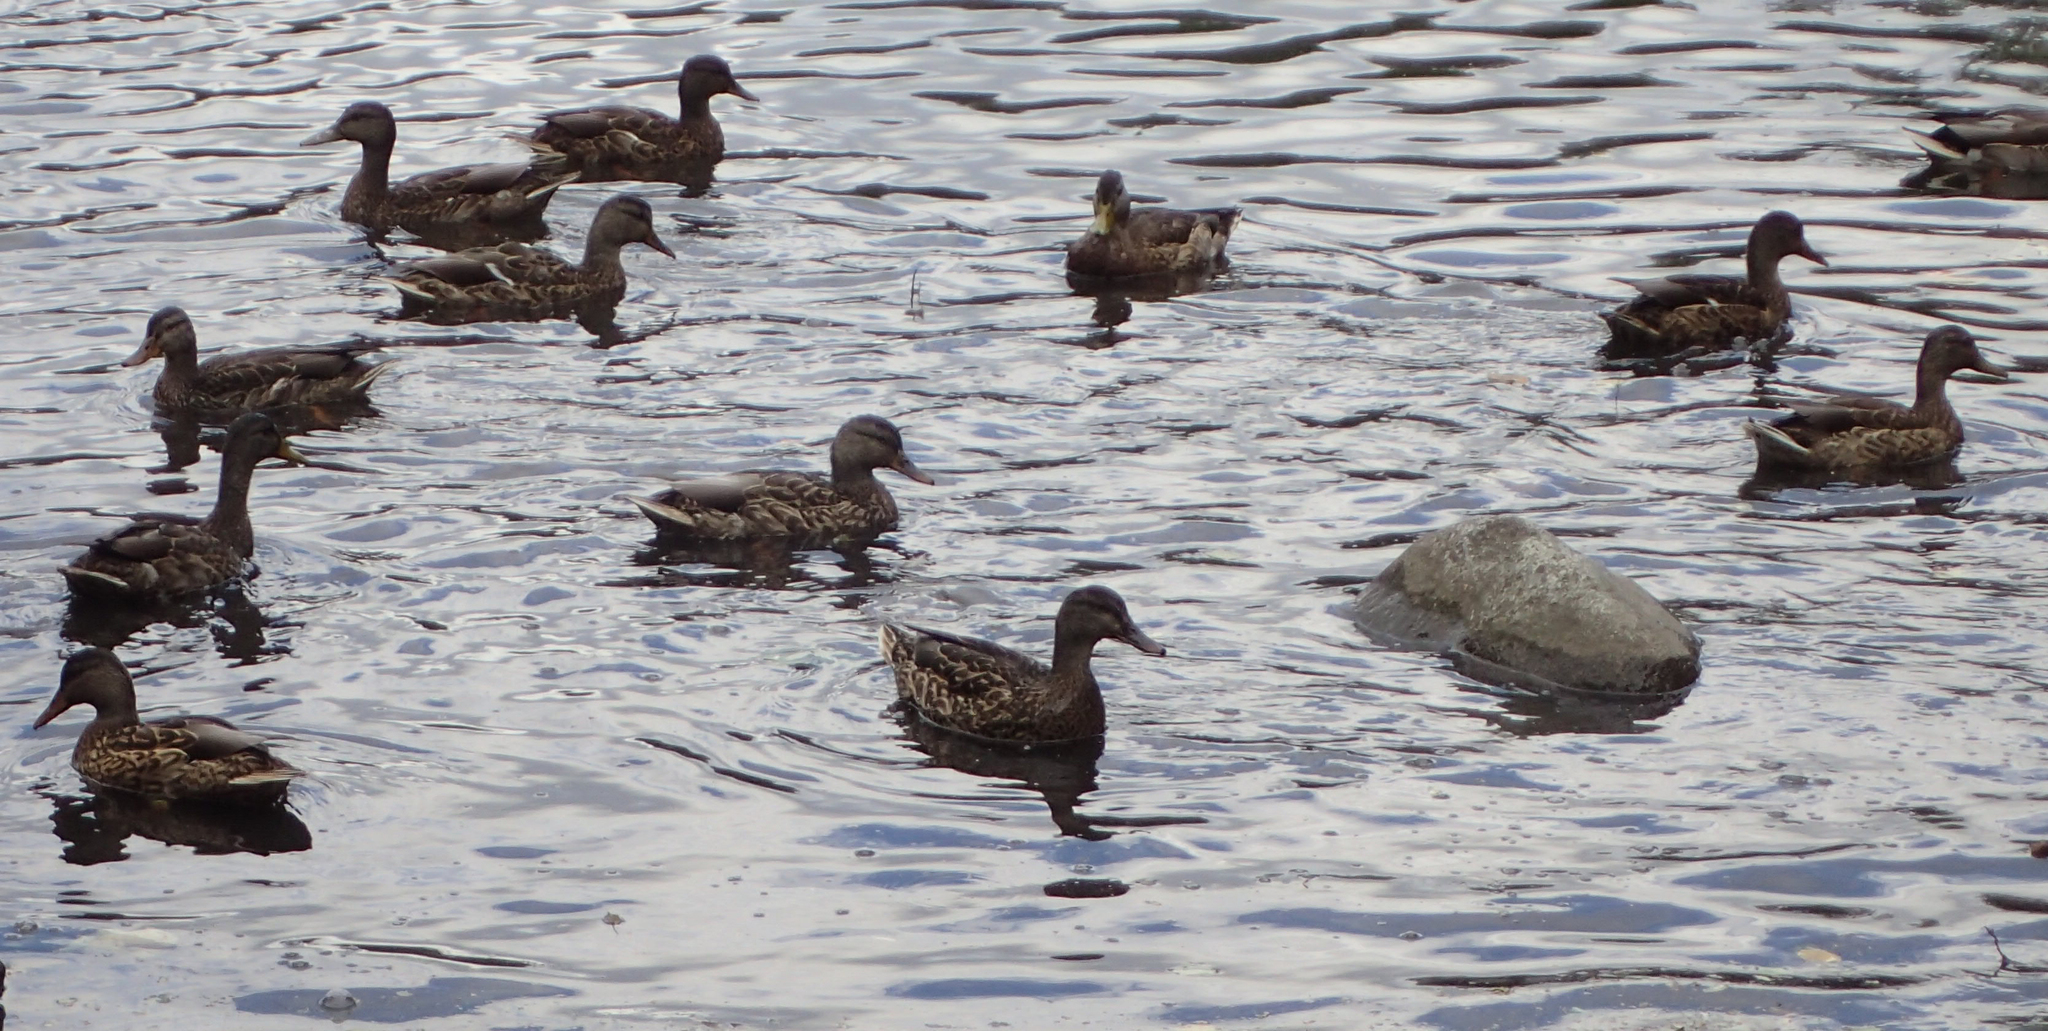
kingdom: Animalia
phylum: Chordata
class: Aves
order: Anseriformes
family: Anatidae
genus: Anas
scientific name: Anas platyrhynchos
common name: Mallard
